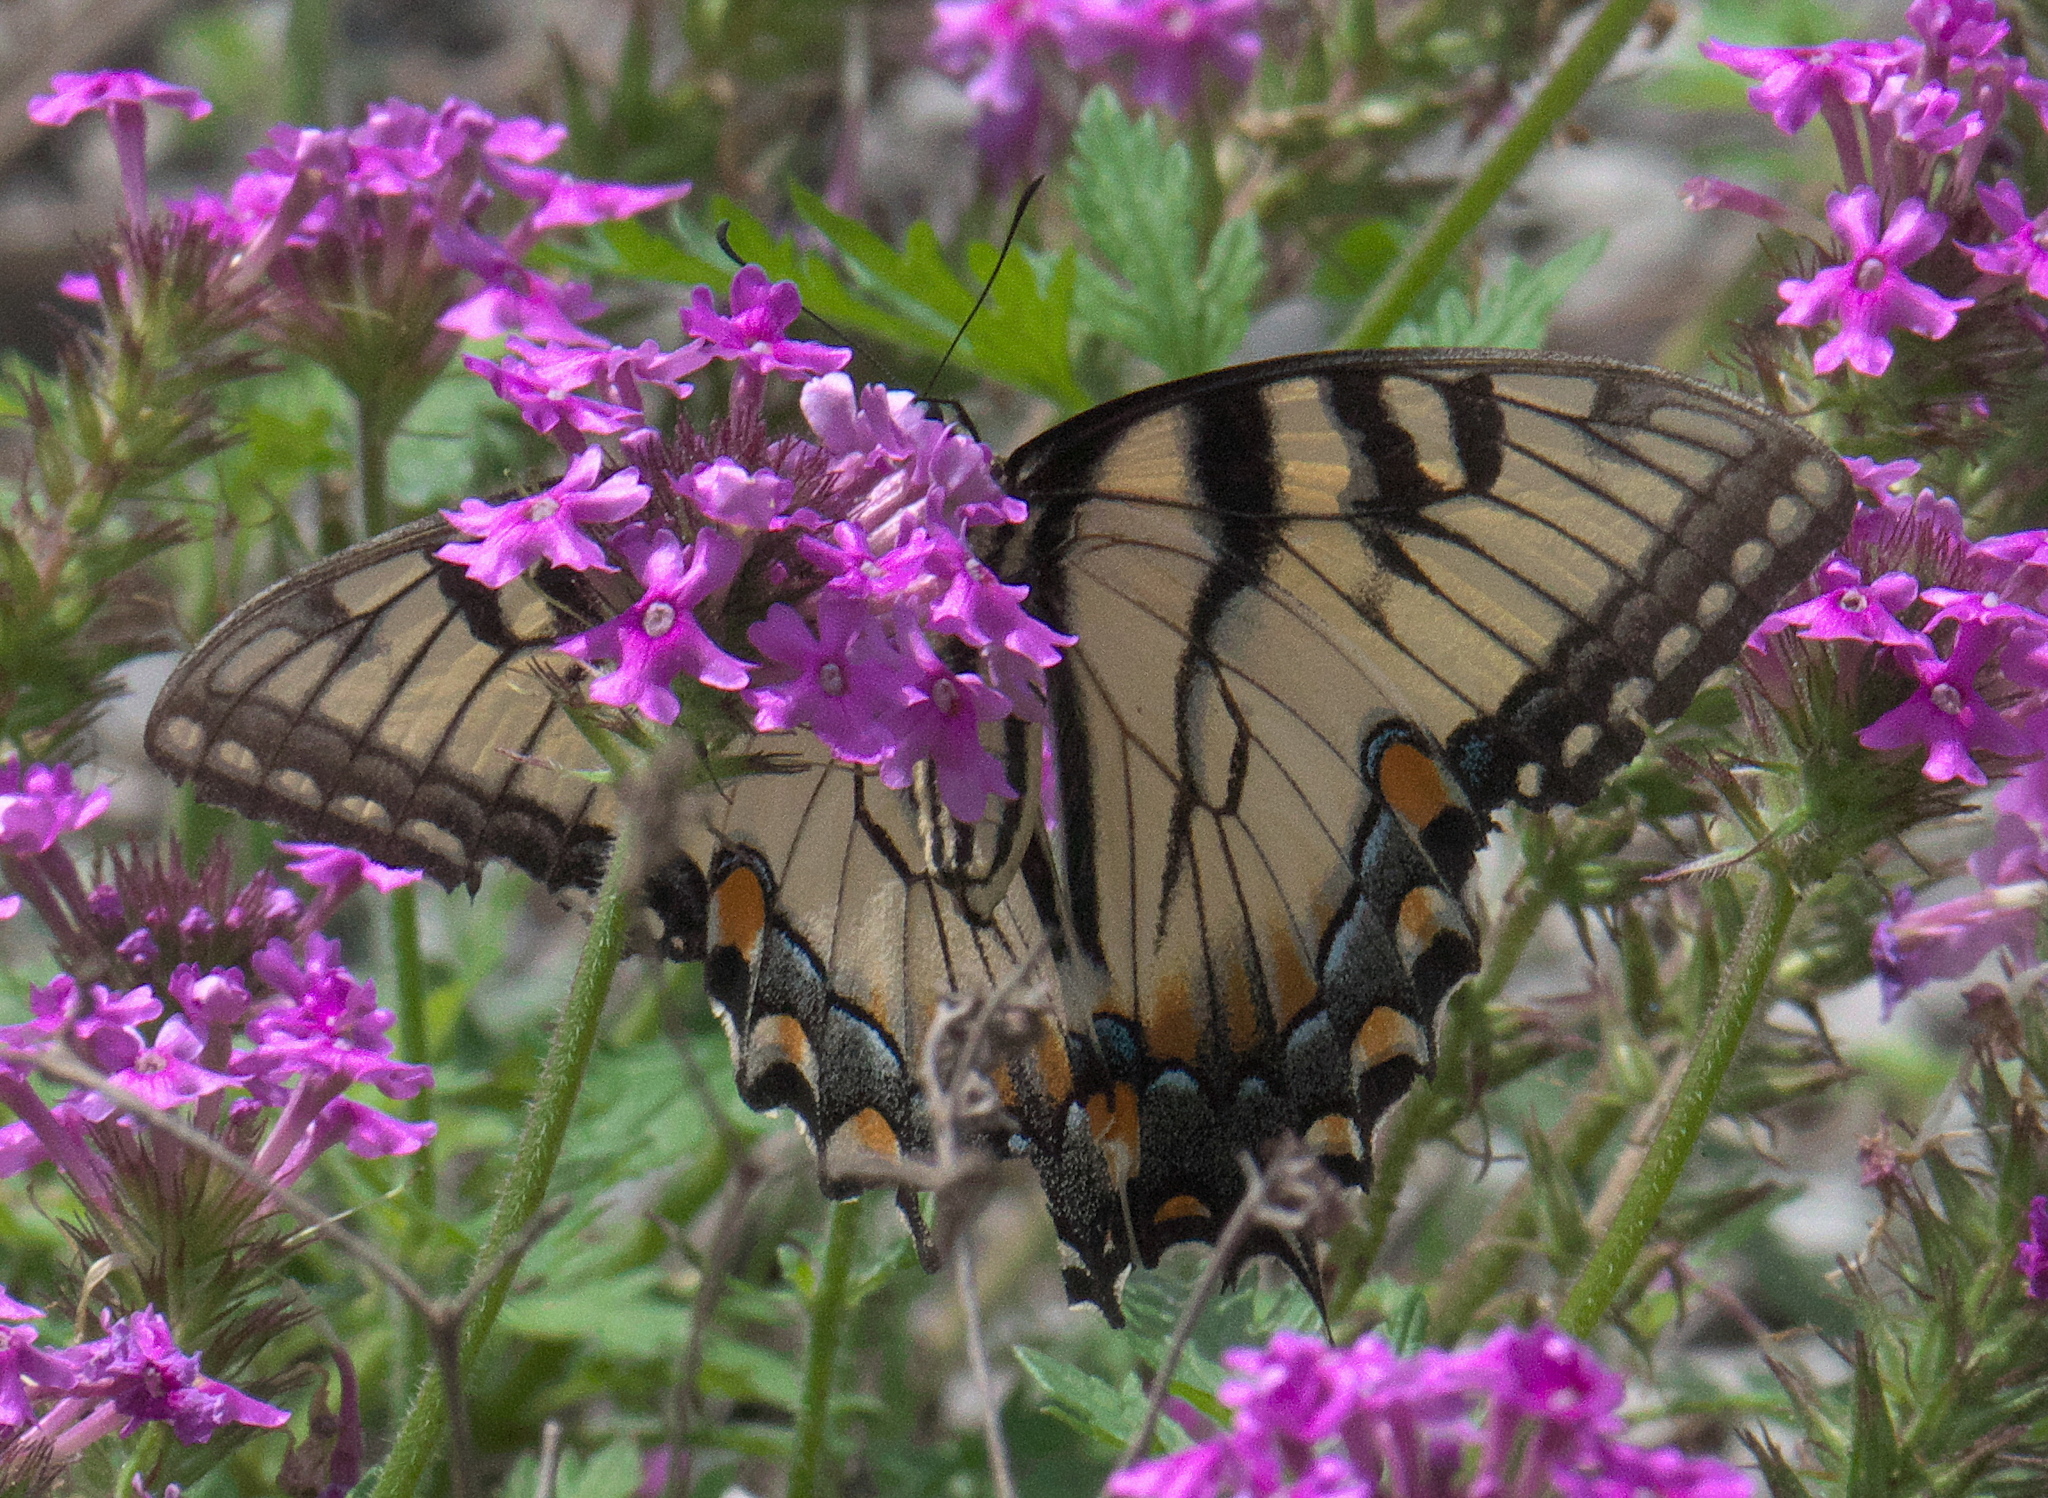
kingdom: Animalia
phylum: Arthropoda
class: Insecta
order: Lepidoptera
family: Papilionidae
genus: Papilio
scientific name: Papilio glaucus
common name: Tiger swallowtail
